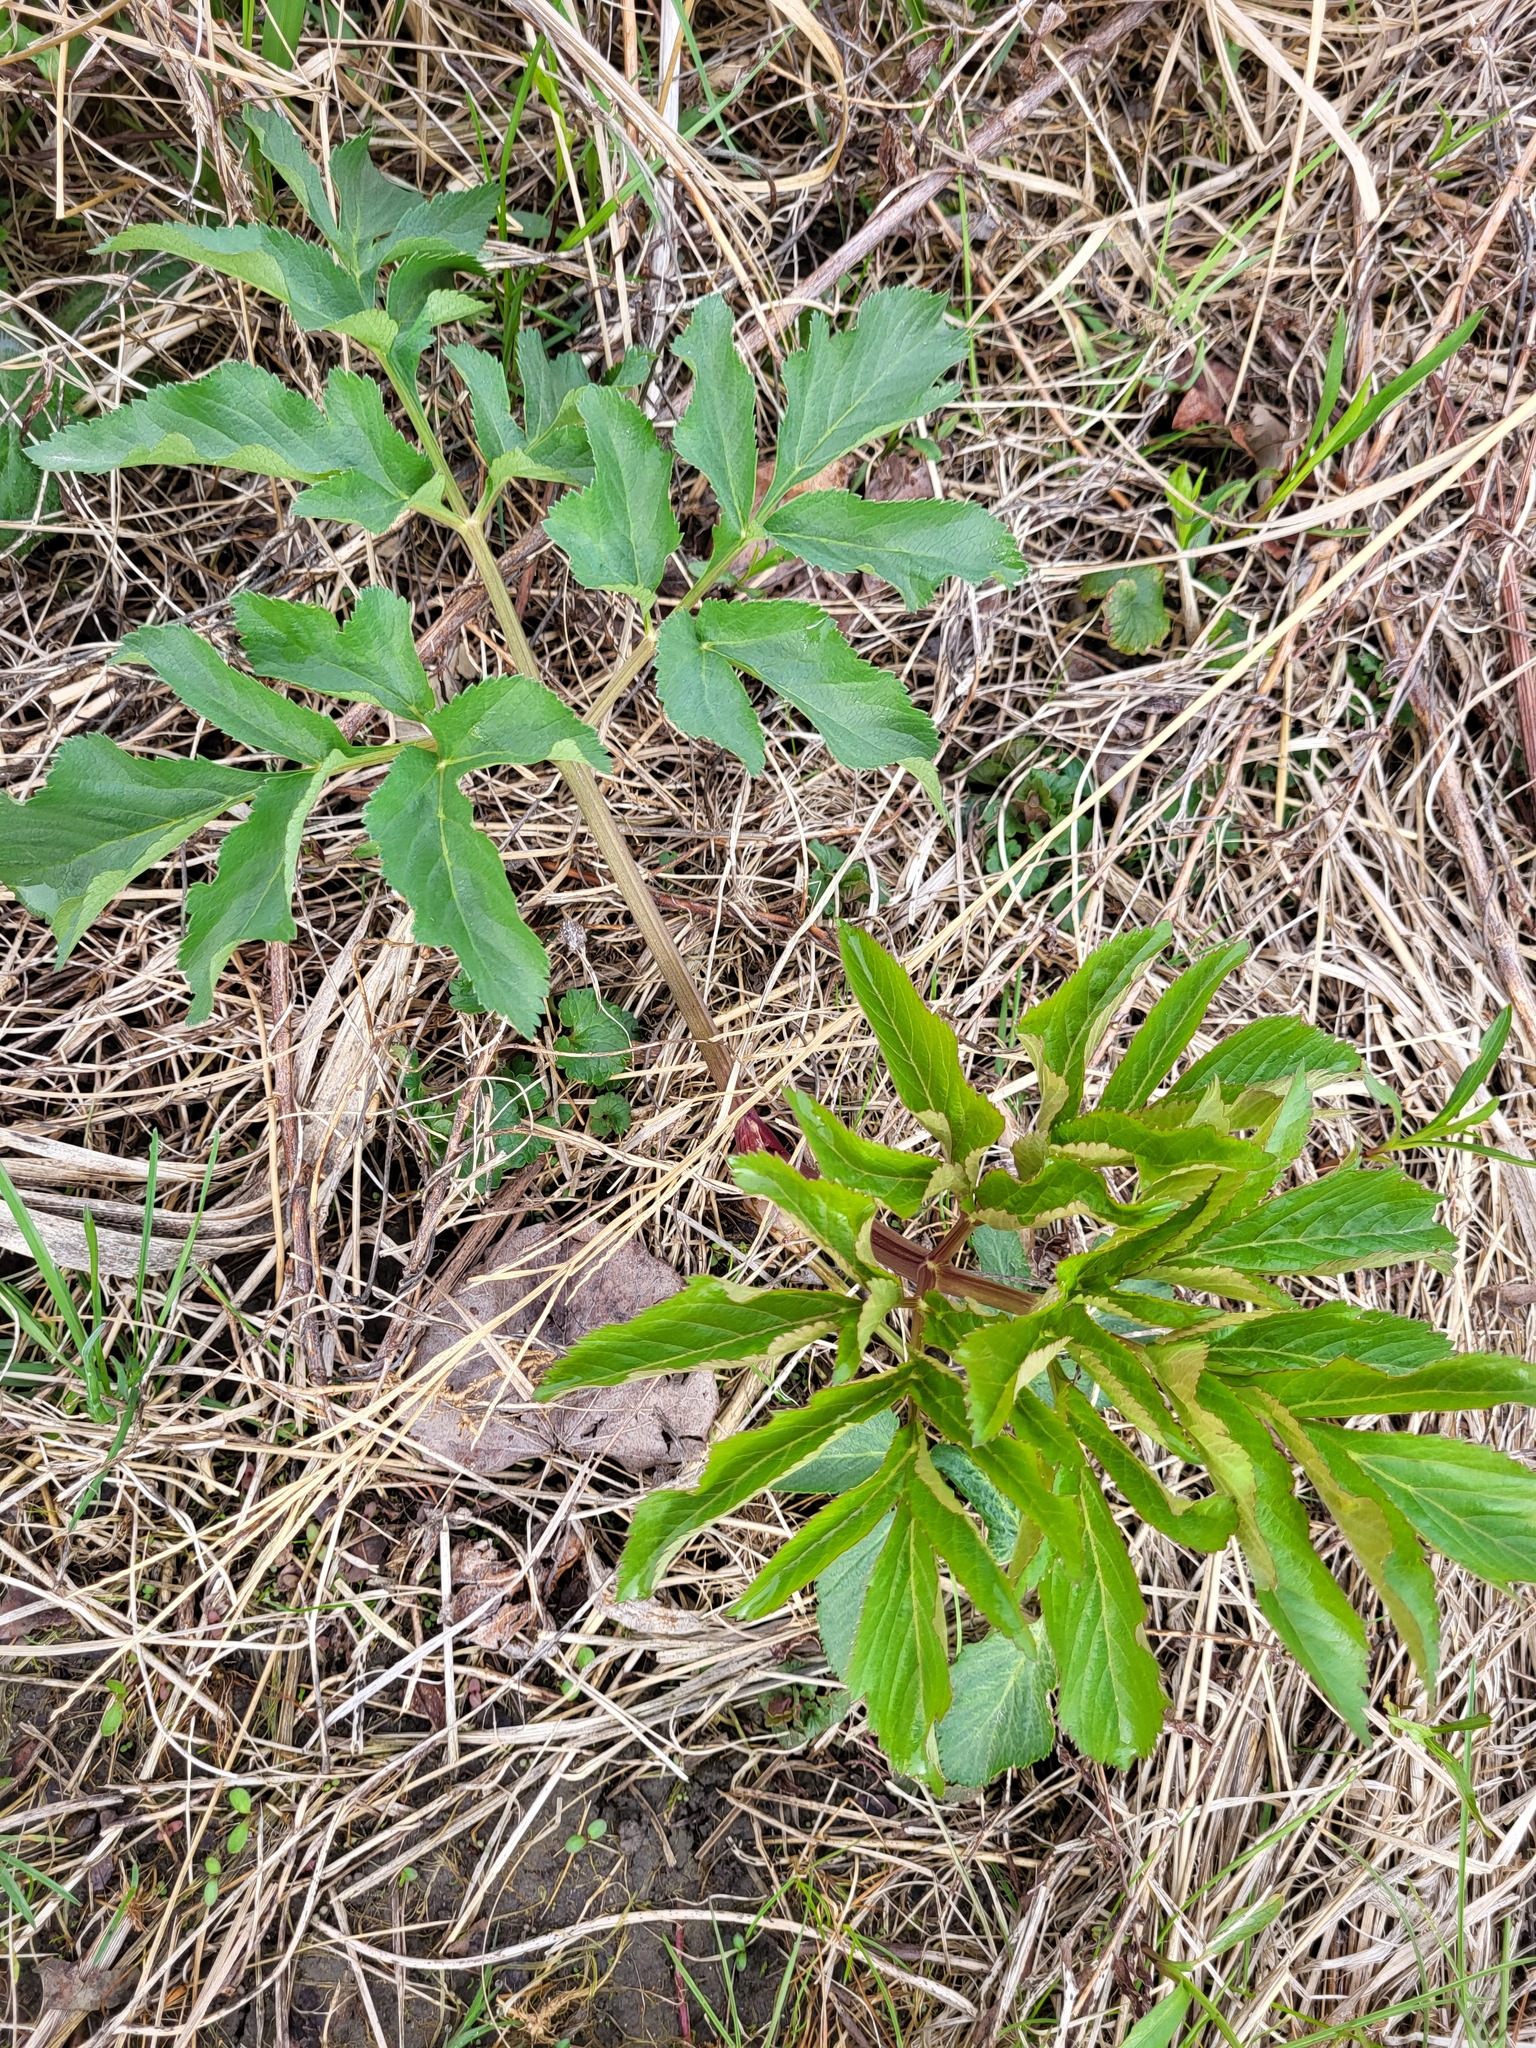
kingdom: Plantae
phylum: Tracheophyta
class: Magnoliopsida
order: Apiales
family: Apiaceae
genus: Angelica
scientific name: Angelica atropurpurea
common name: Great angelica
